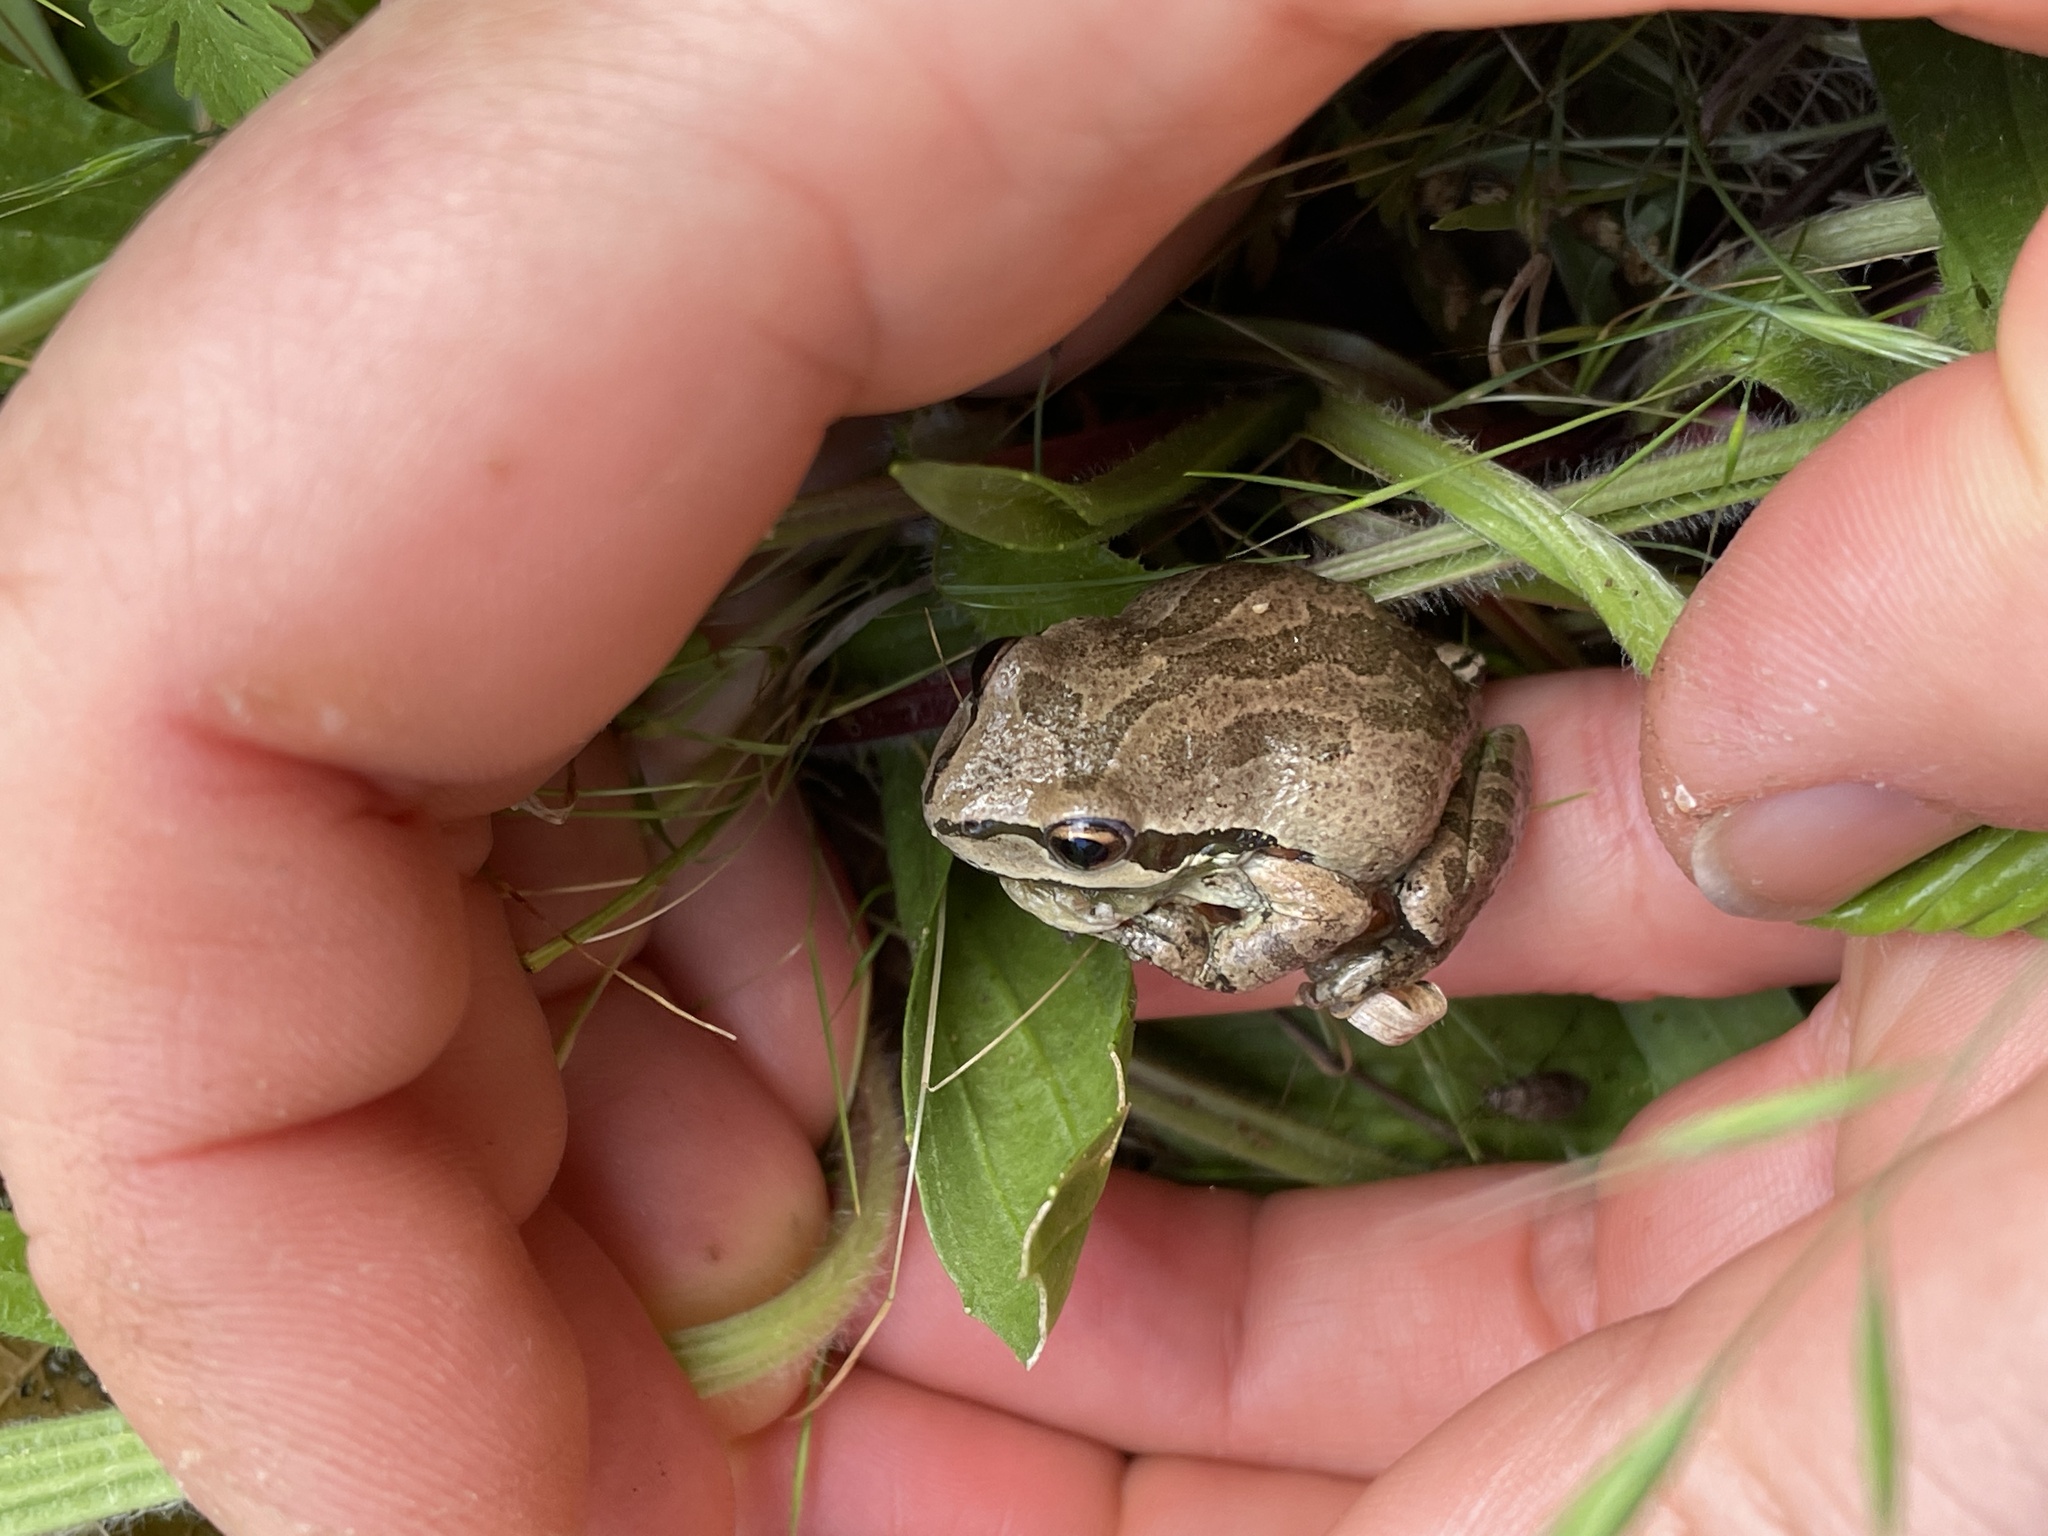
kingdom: Animalia
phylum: Chordata
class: Amphibia
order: Anura
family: Hylidae
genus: Pseudacris
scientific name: Pseudacris regilla
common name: Pacific chorus frog
